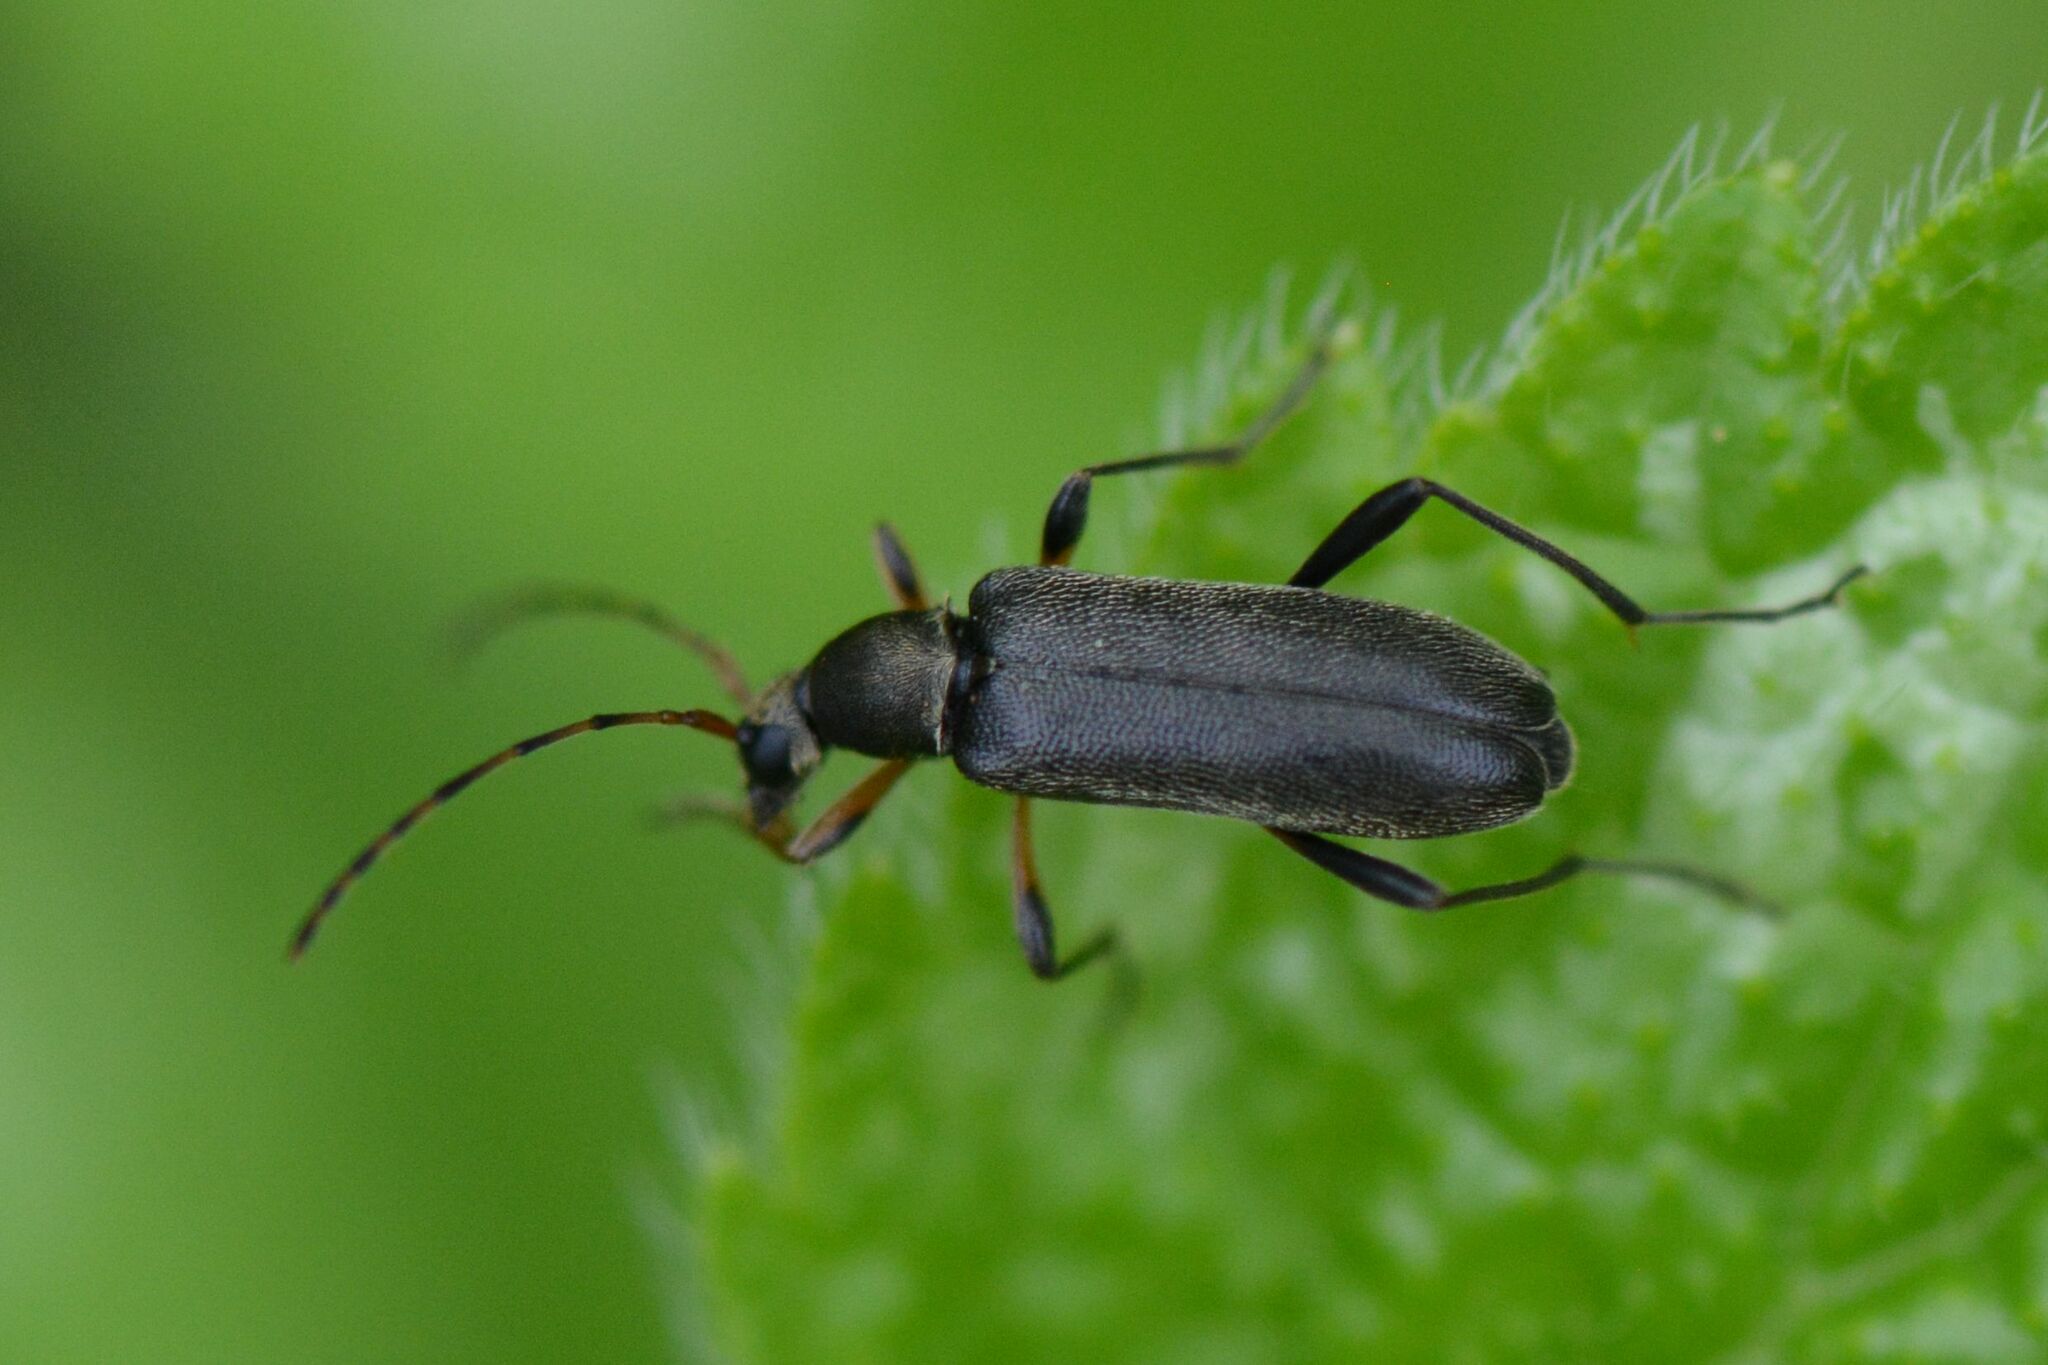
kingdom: Animalia
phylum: Arthropoda
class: Insecta
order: Coleoptera
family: Cerambycidae
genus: Grammoptera
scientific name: Grammoptera ruficornis
